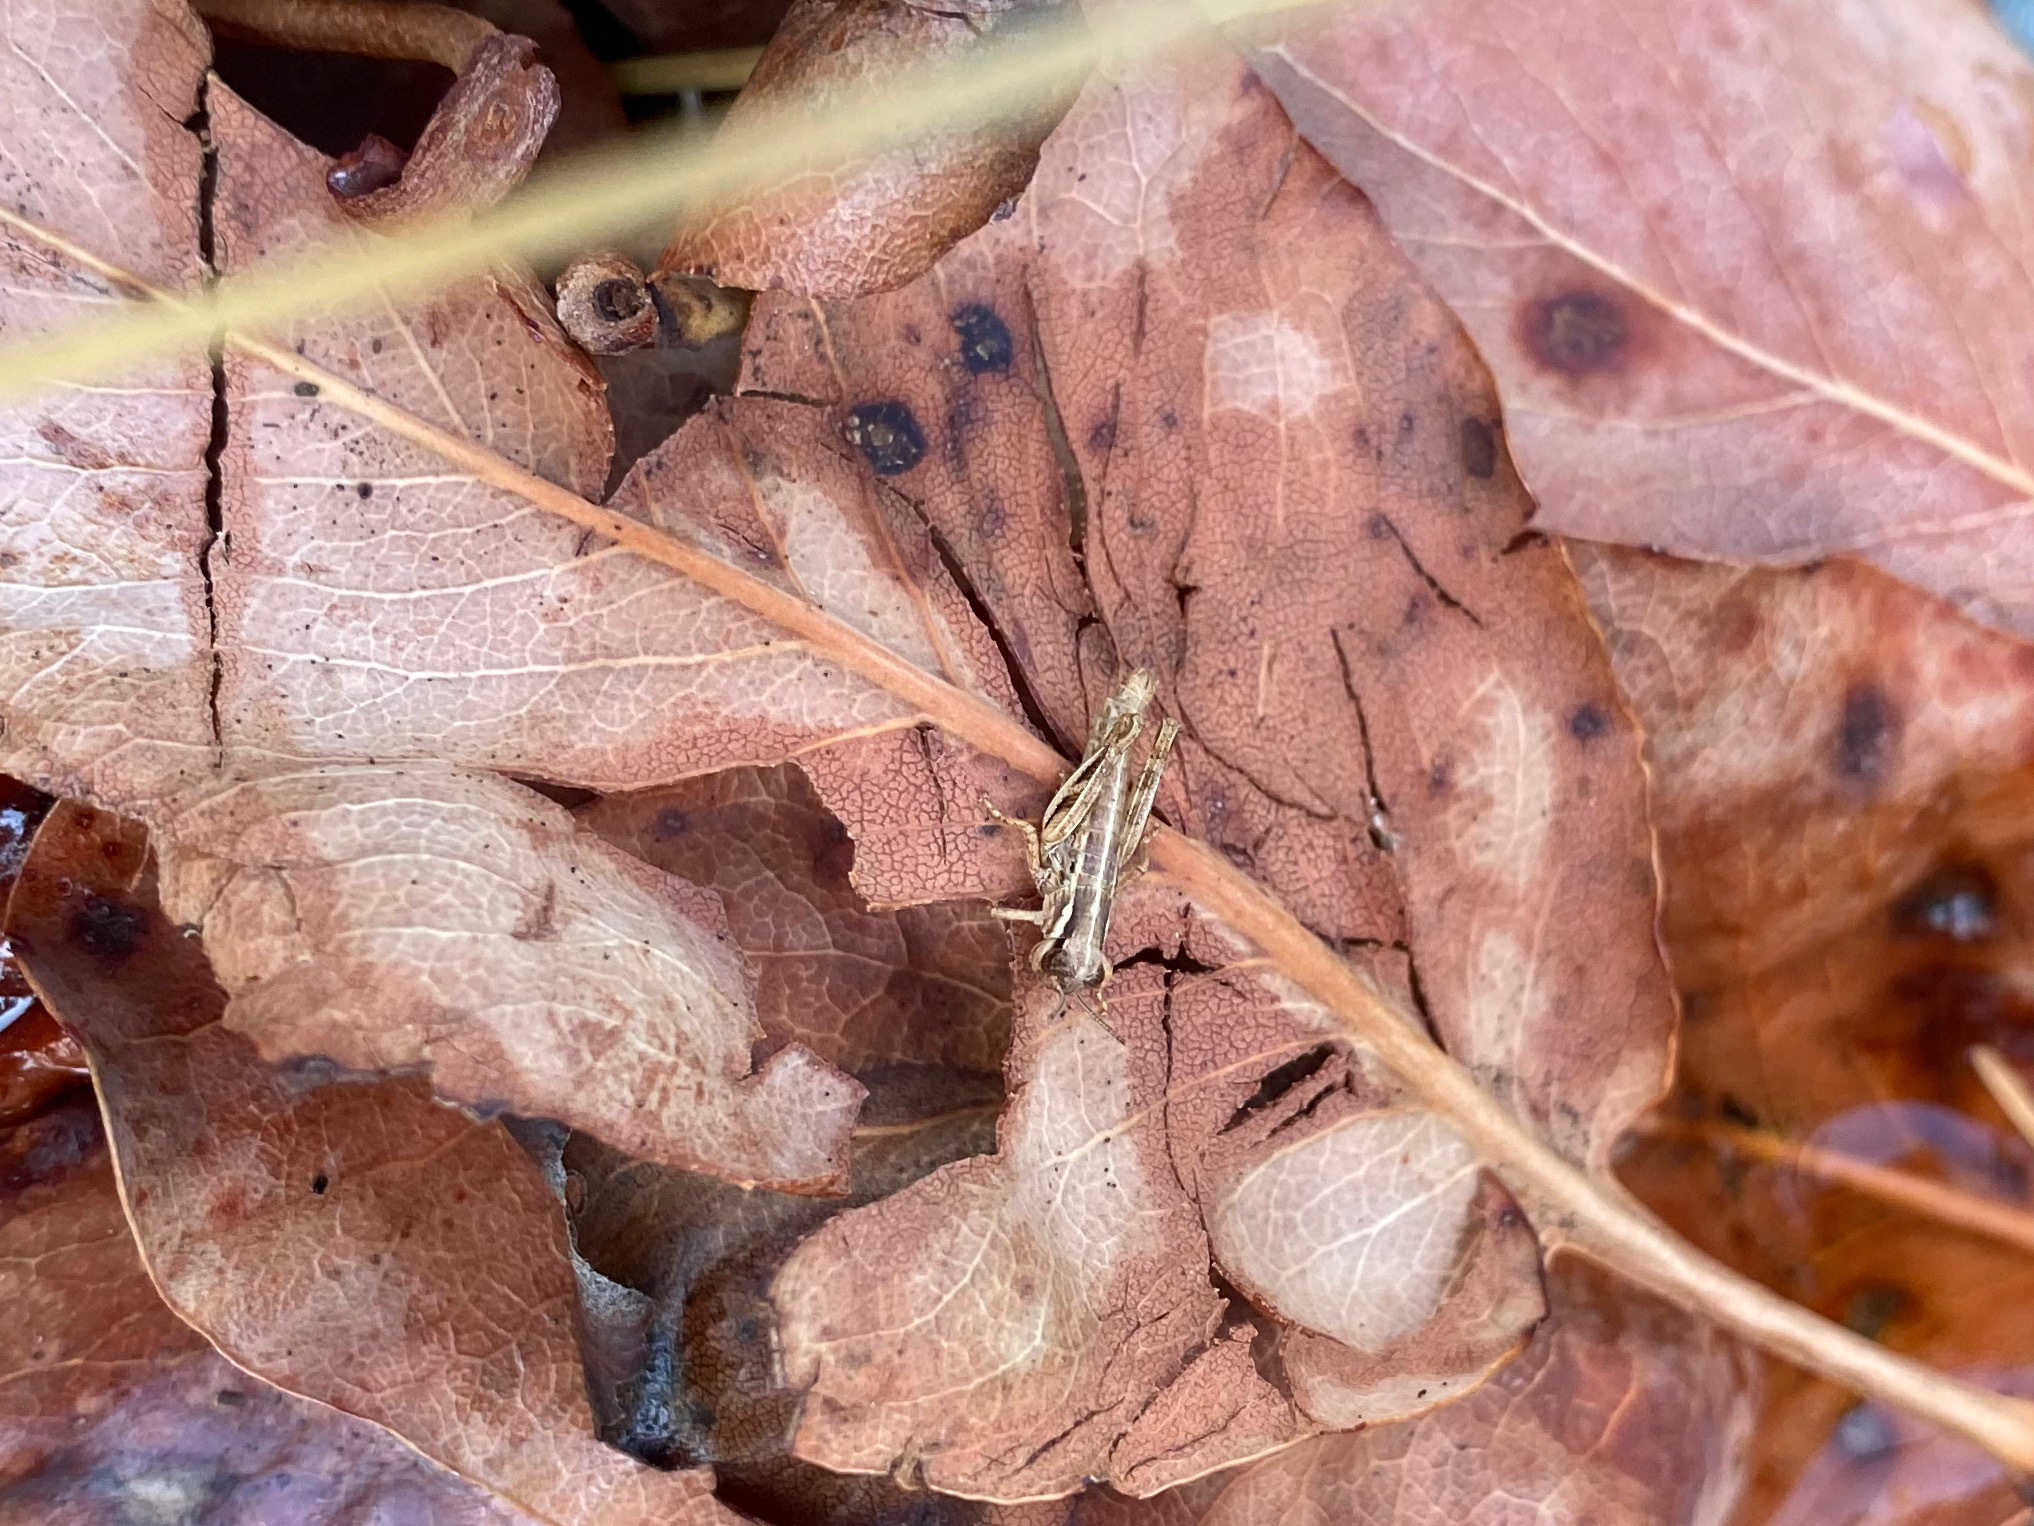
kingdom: Animalia
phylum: Arthropoda
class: Insecta
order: Orthoptera
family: Acrididae
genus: Melanoplus
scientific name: Melanoplus sanguinipes
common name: Migratory grasshopper
